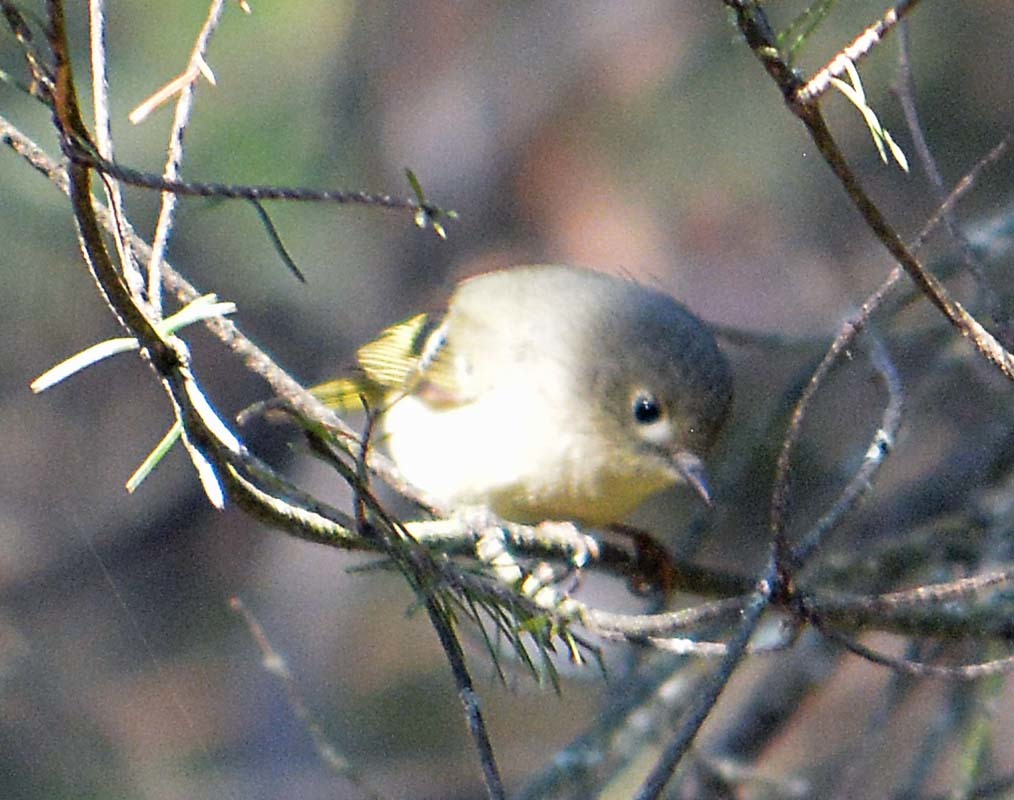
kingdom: Animalia
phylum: Chordata
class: Aves
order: Passeriformes
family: Regulidae
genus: Regulus
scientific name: Regulus calendula
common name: Ruby-crowned kinglet
